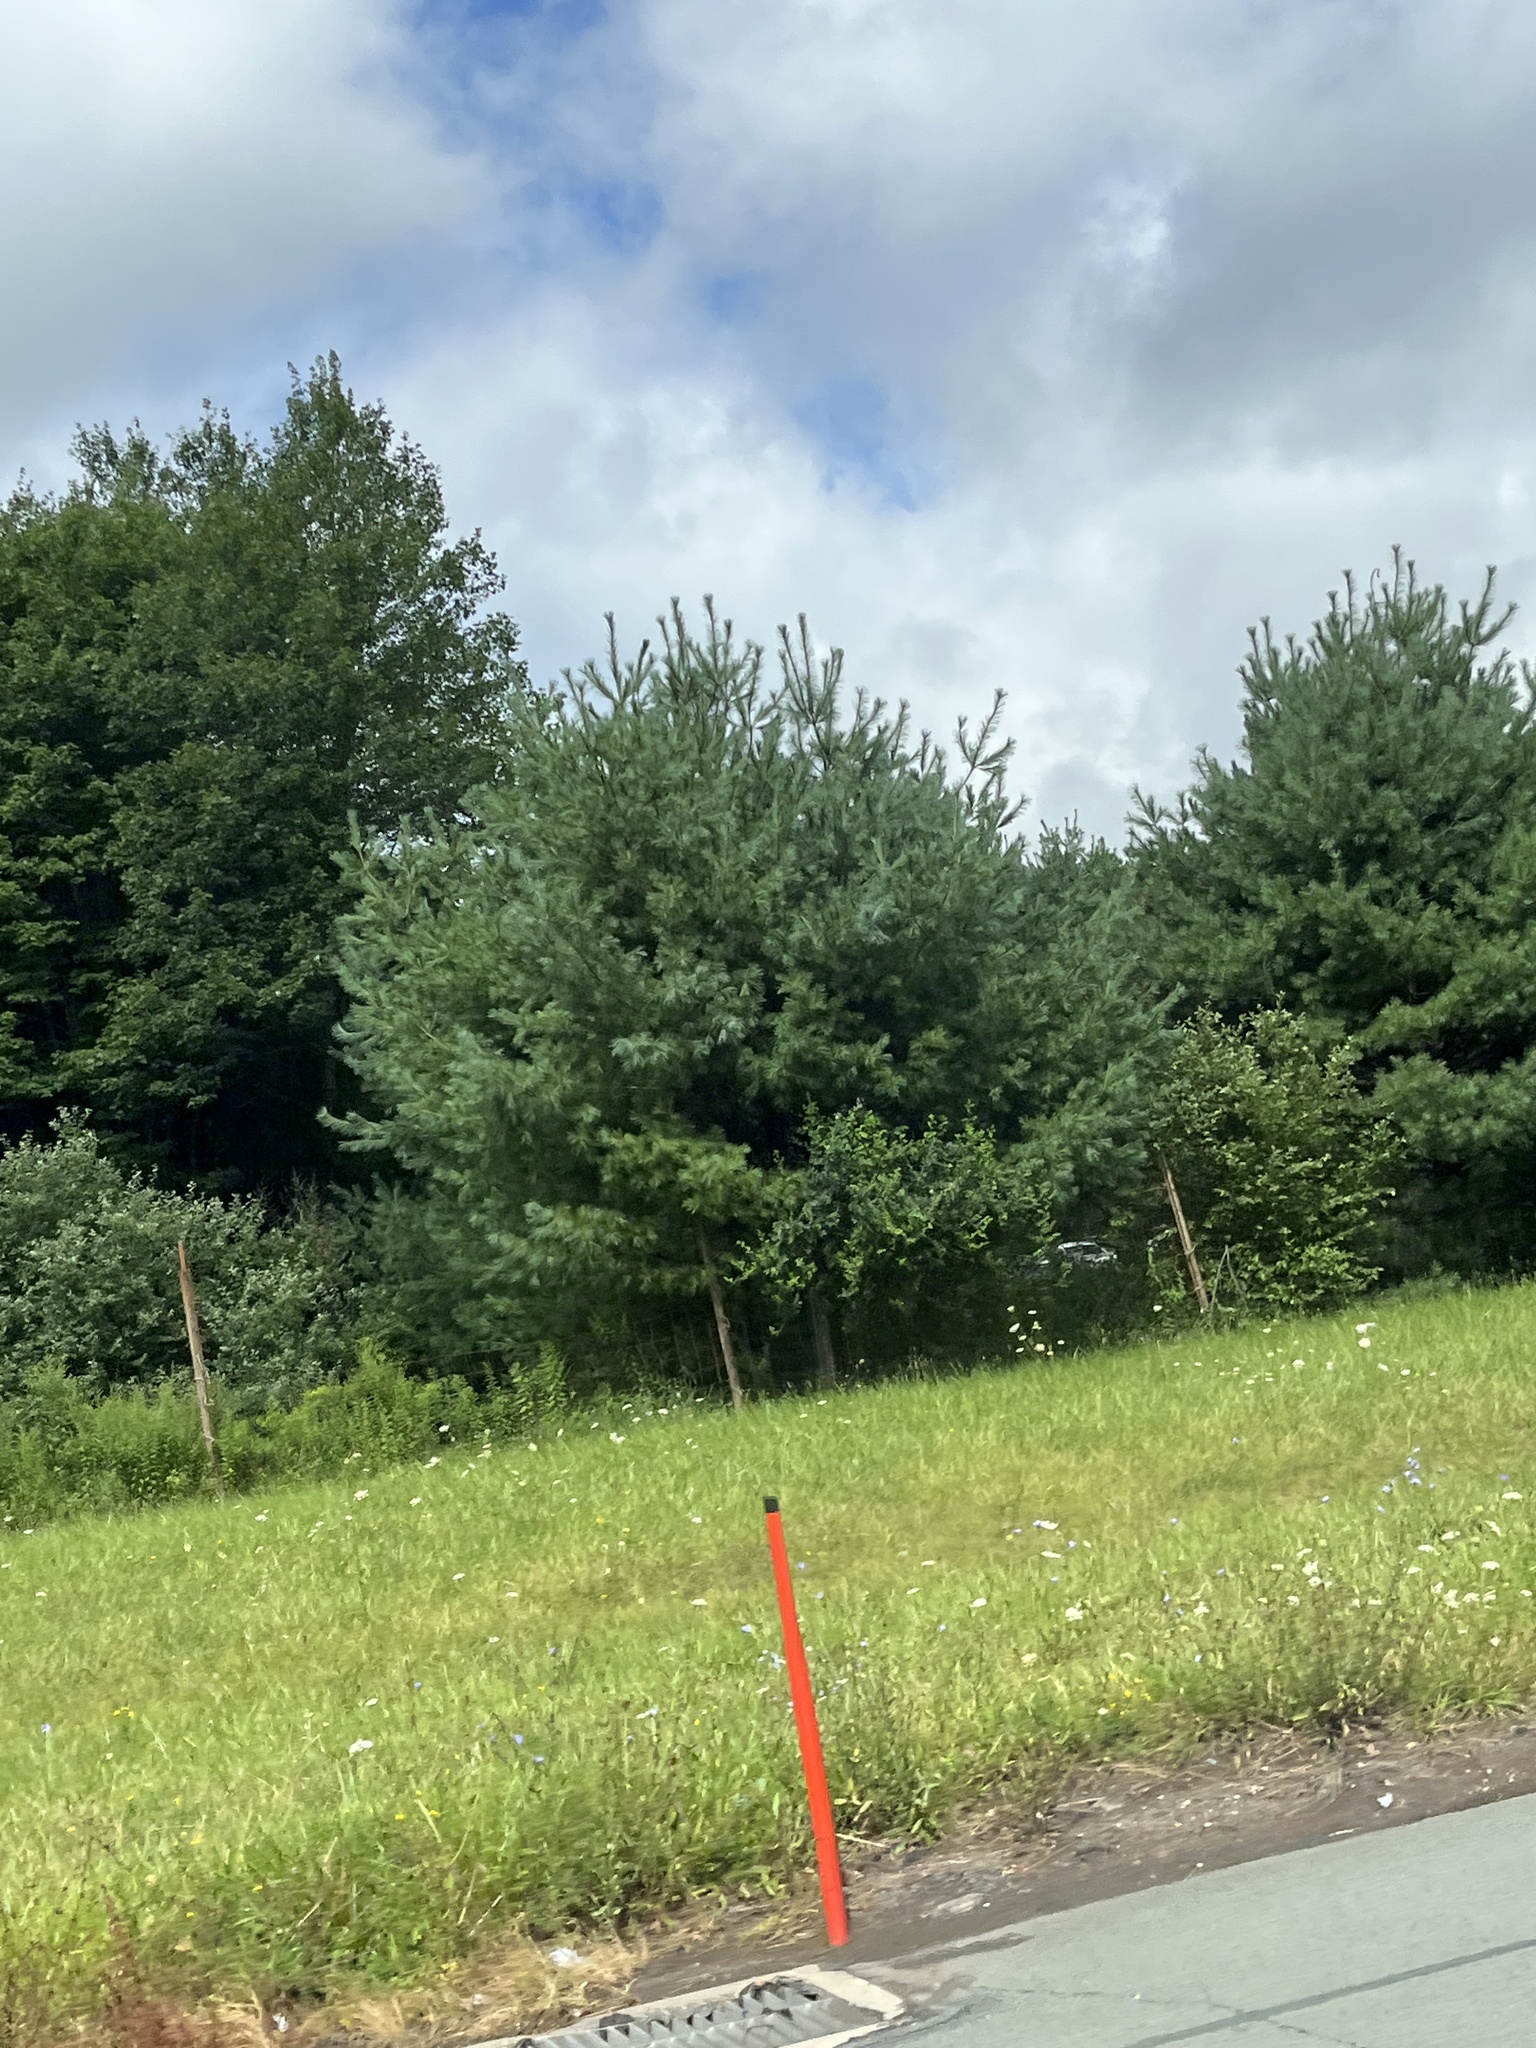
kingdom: Plantae
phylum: Tracheophyta
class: Pinopsida
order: Pinales
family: Pinaceae
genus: Pinus
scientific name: Pinus strobus
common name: Weymouth pine
